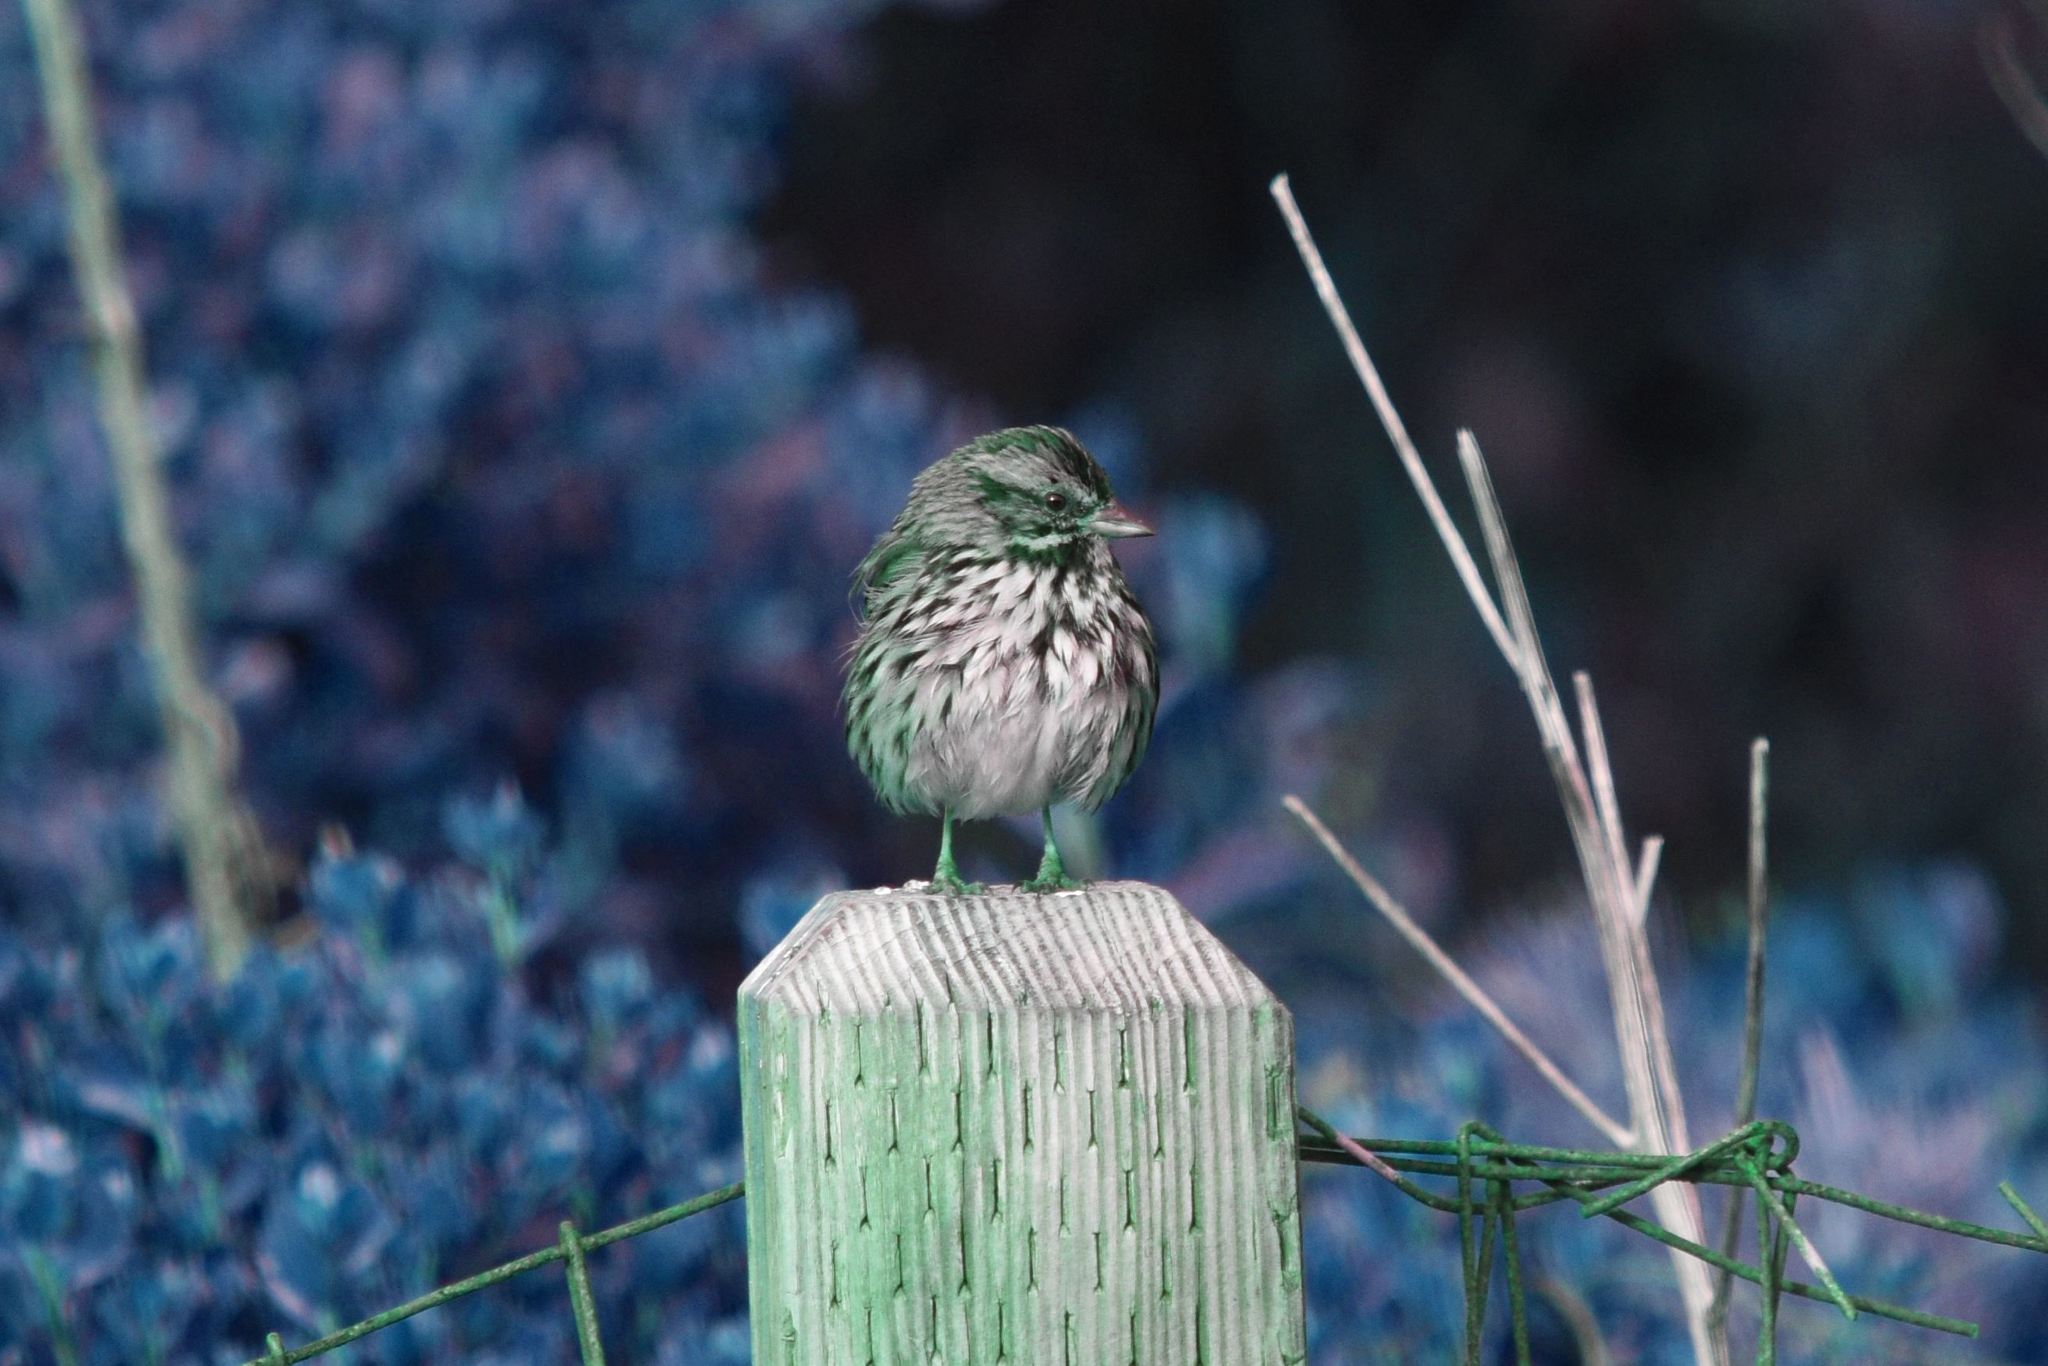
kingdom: Animalia
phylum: Chordata
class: Aves
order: Passeriformes
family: Passerellidae
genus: Melospiza
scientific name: Melospiza melodia
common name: Song sparrow
